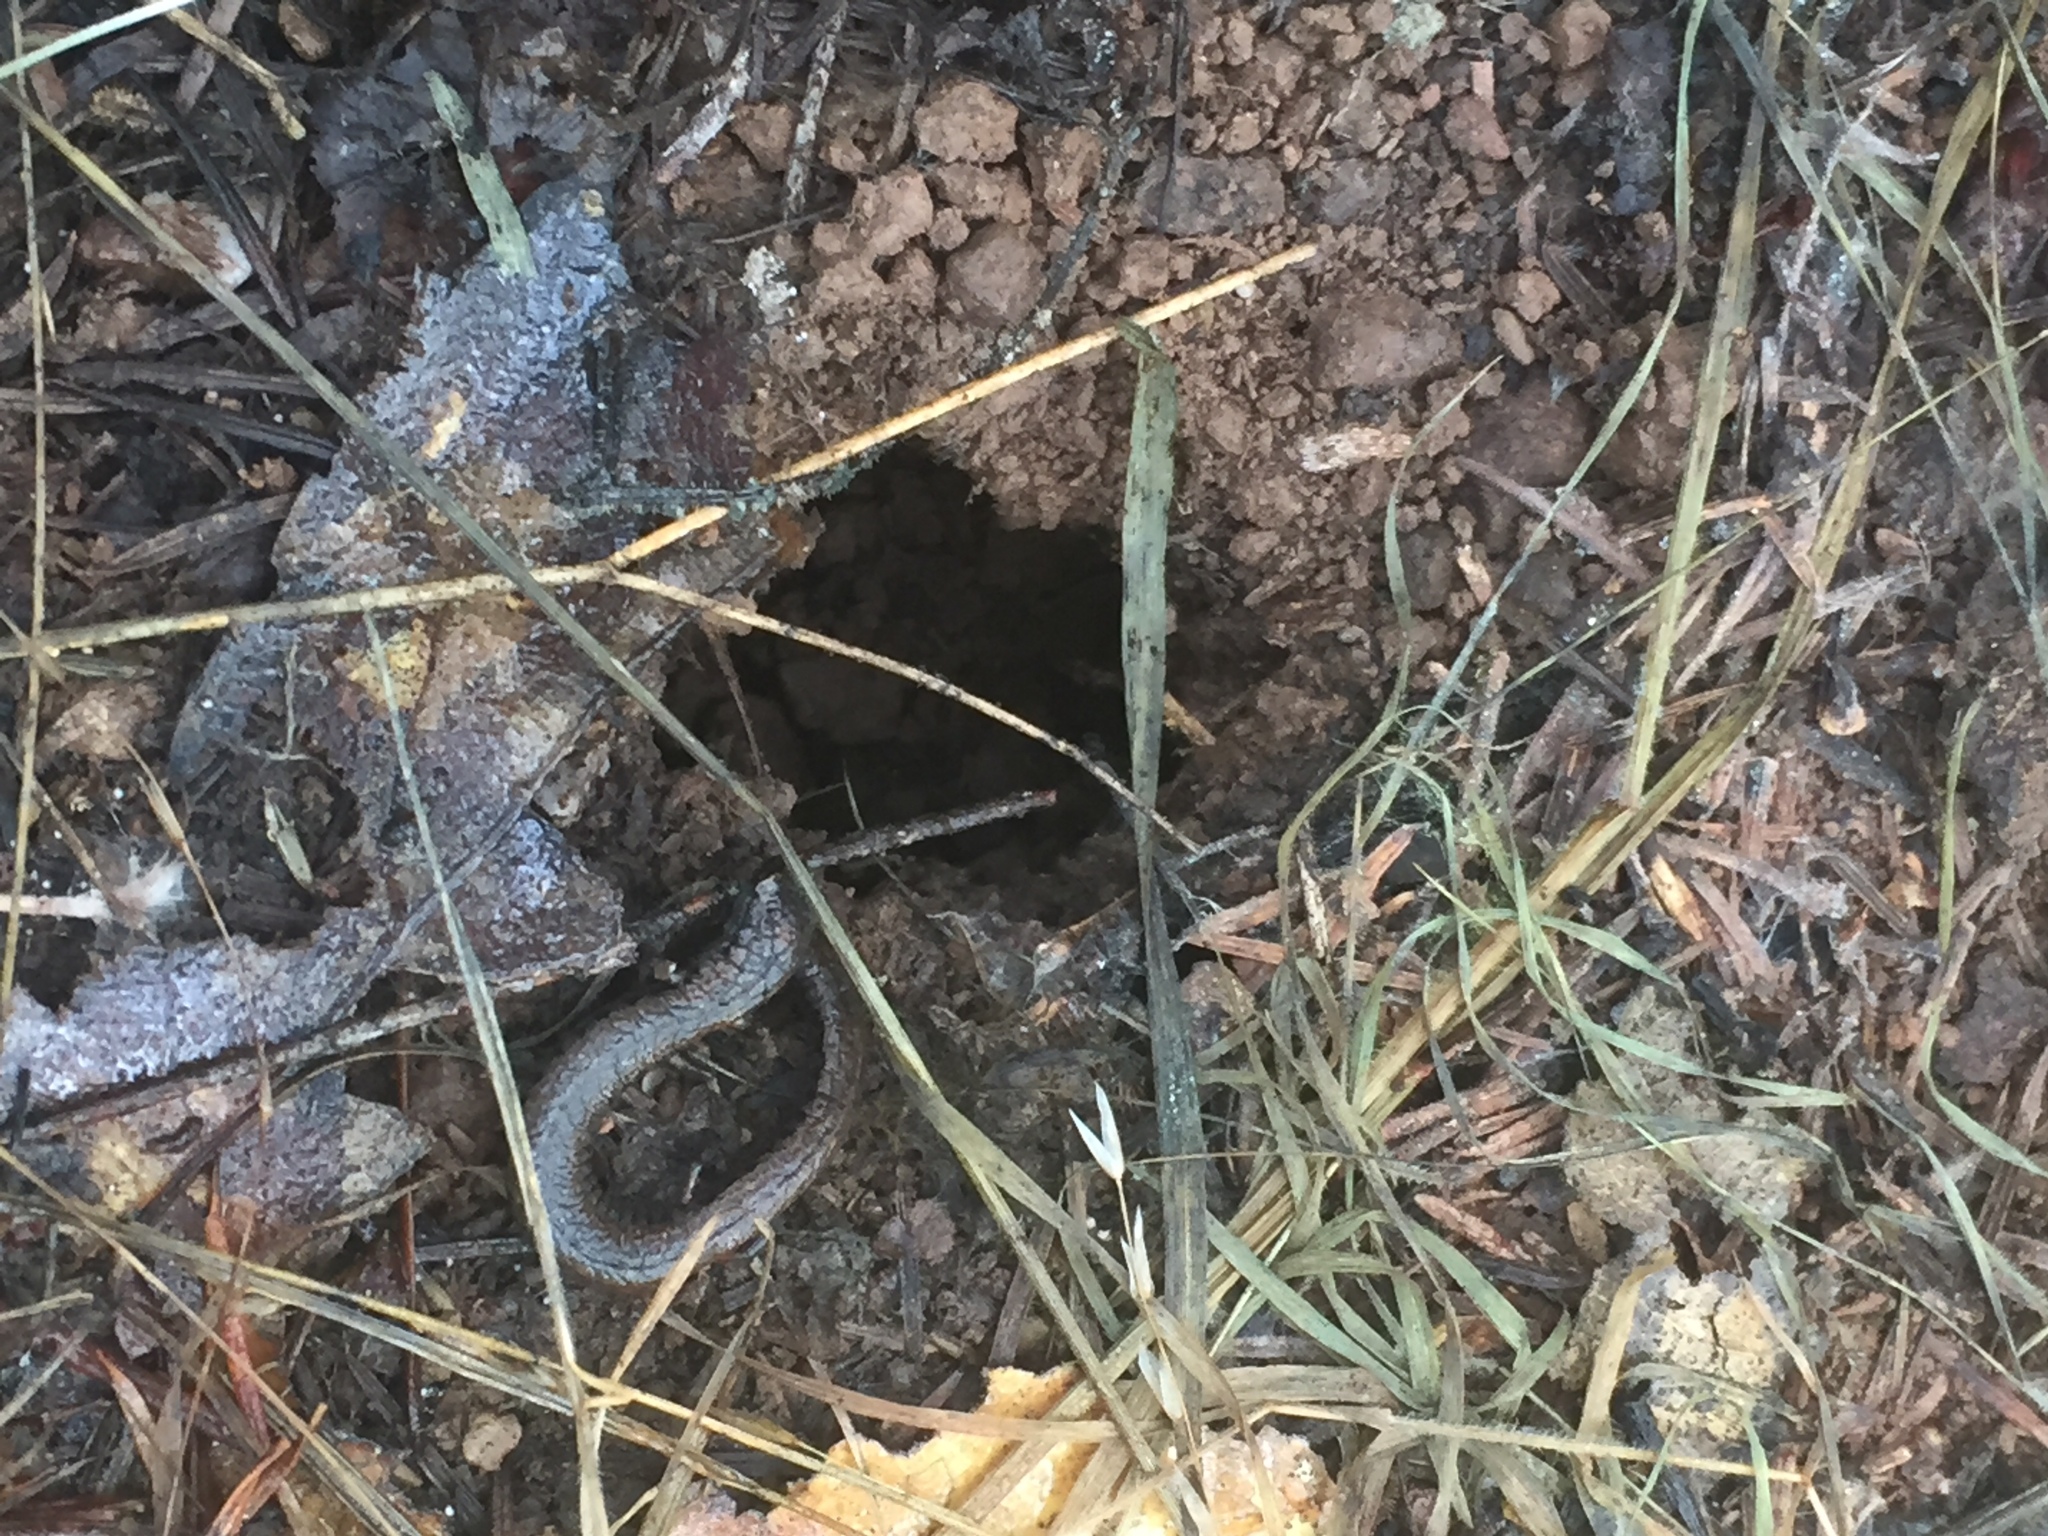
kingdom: Animalia
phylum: Chordata
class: Amphibia
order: Caudata
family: Plethodontidae
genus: Batrachoseps
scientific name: Batrachoseps attenuatus
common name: California slender salamander
